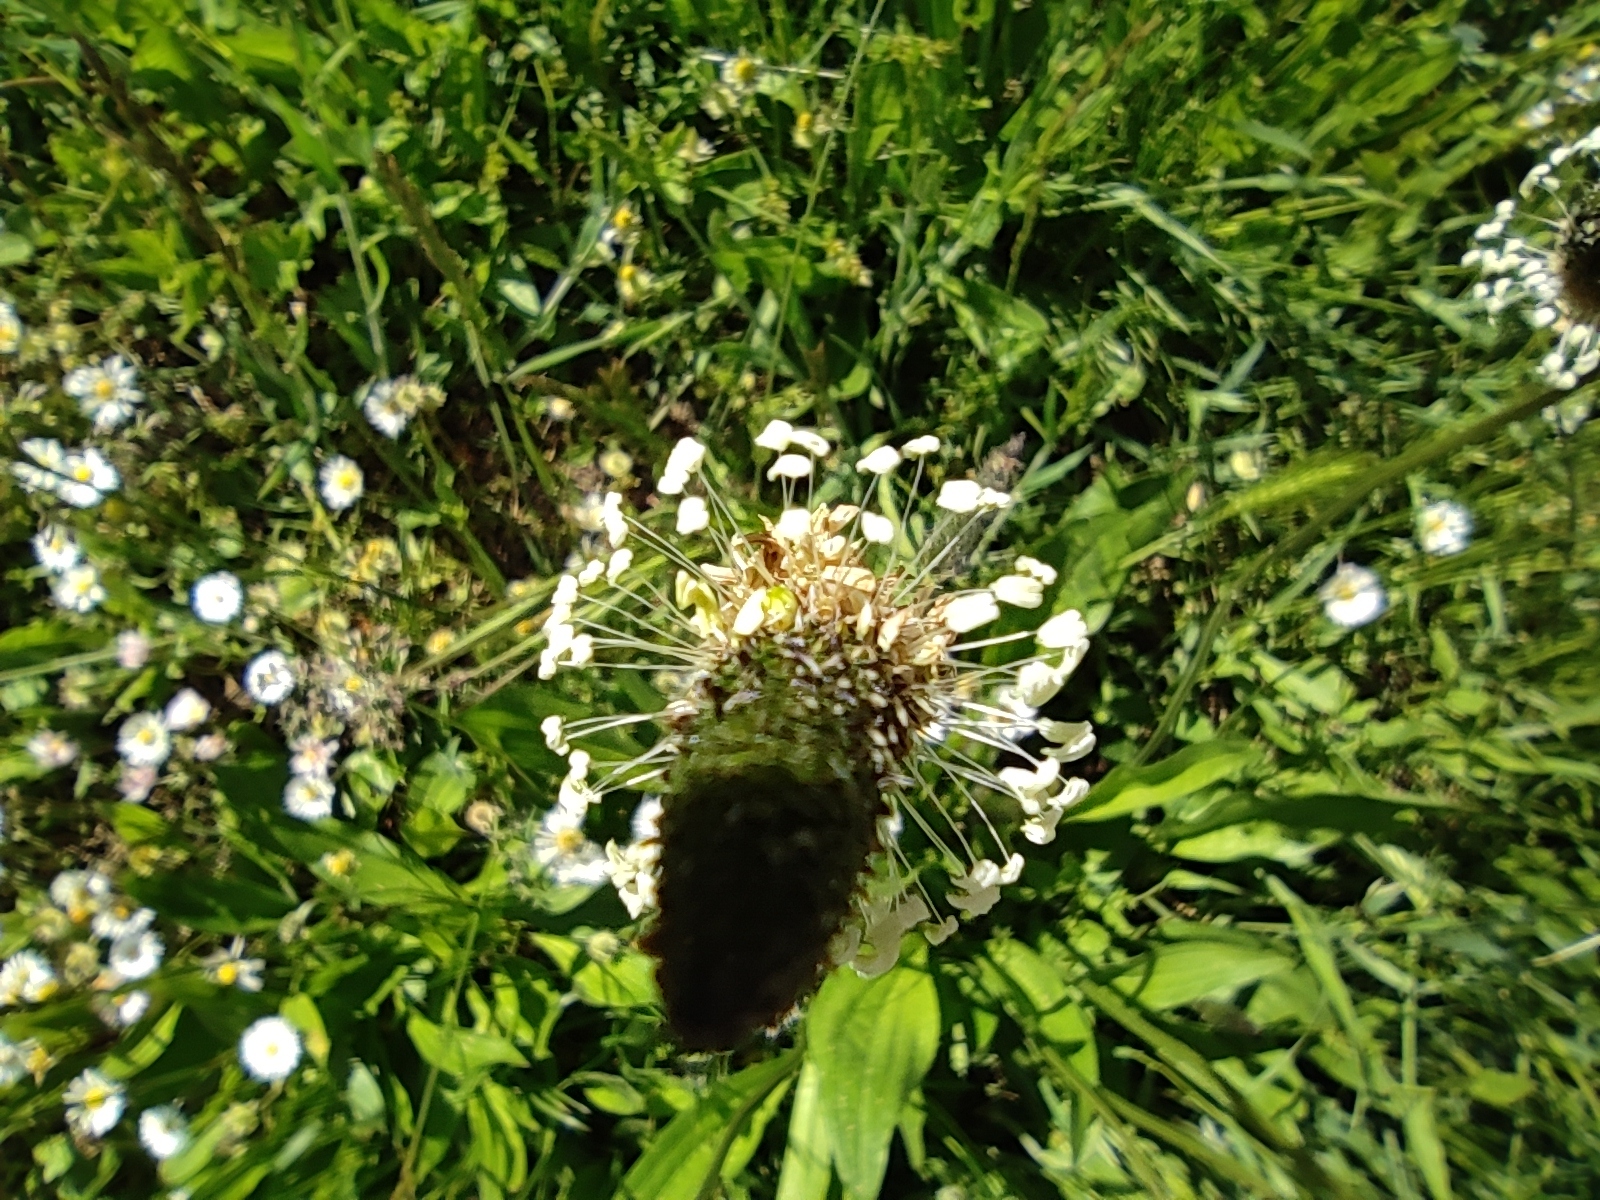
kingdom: Plantae
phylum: Tracheophyta
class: Magnoliopsida
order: Lamiales
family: Plantaginaceae
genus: Plantago
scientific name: Plantago lanceolata
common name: Ribwort plantain
